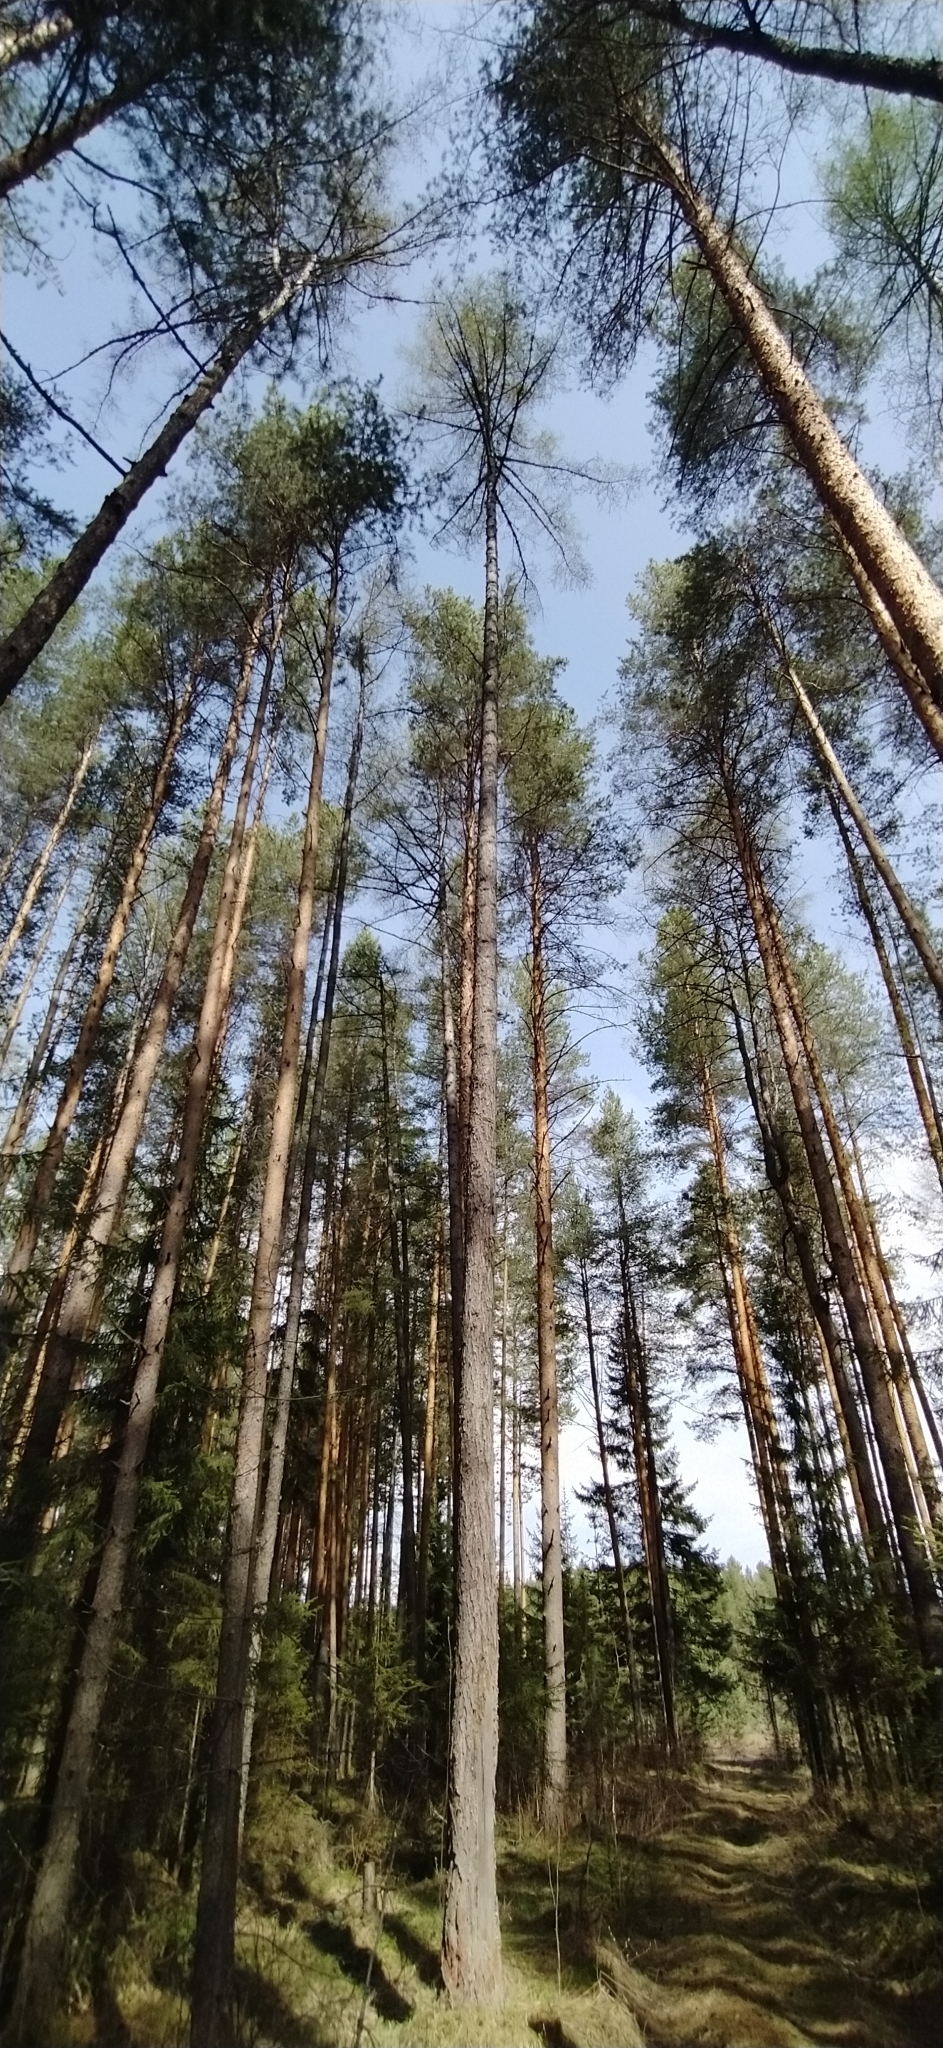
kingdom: Plantae
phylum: Tracheophyta
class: Pinopsida
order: Pinales
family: Pinaceae
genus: Larix
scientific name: Larix sibirica
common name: Siberian larch
